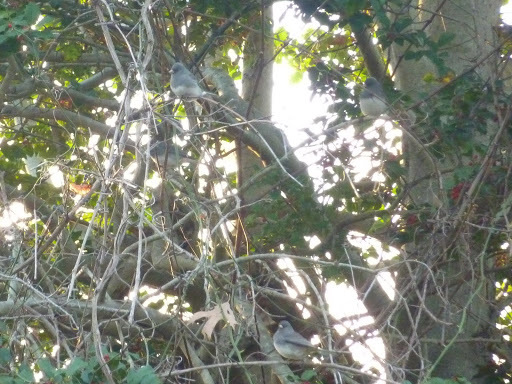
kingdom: Animalia
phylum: Chordata
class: Aves
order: Passeriformes
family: Passerellidae
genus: Junco
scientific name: Junco hyemalis
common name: Dark-eyed junco
